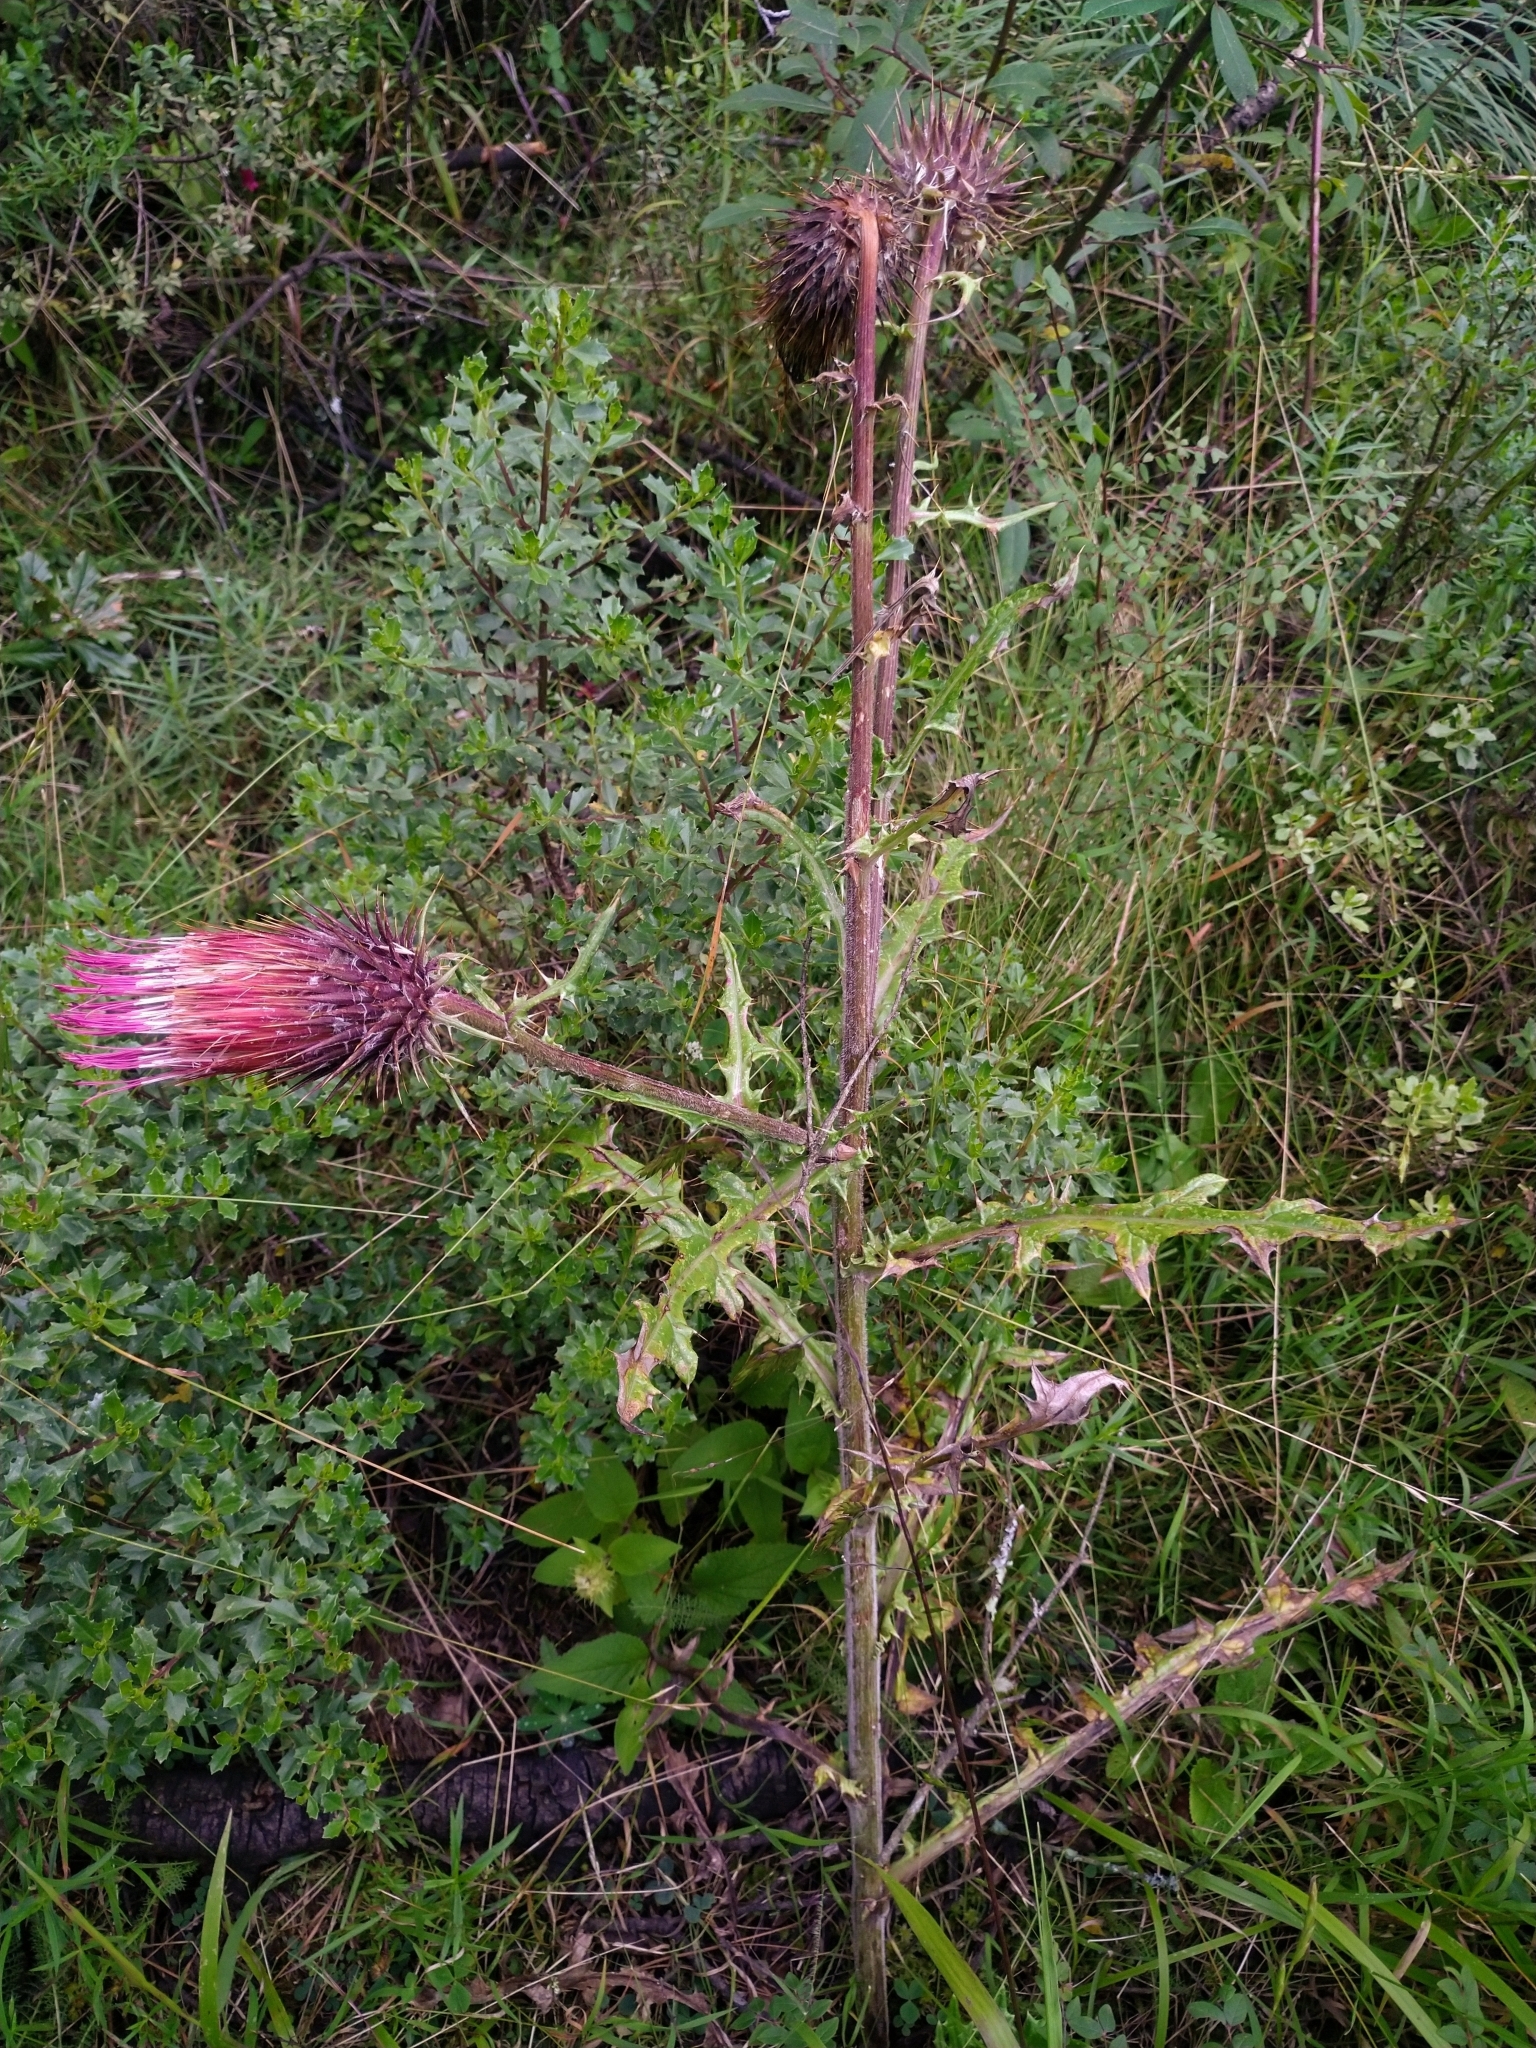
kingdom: Plantae
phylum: Tracheophyta
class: Magnoliopsida
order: Asterales
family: Asteraceae
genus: Cirsium
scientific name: Cirsium ehrenbergii
